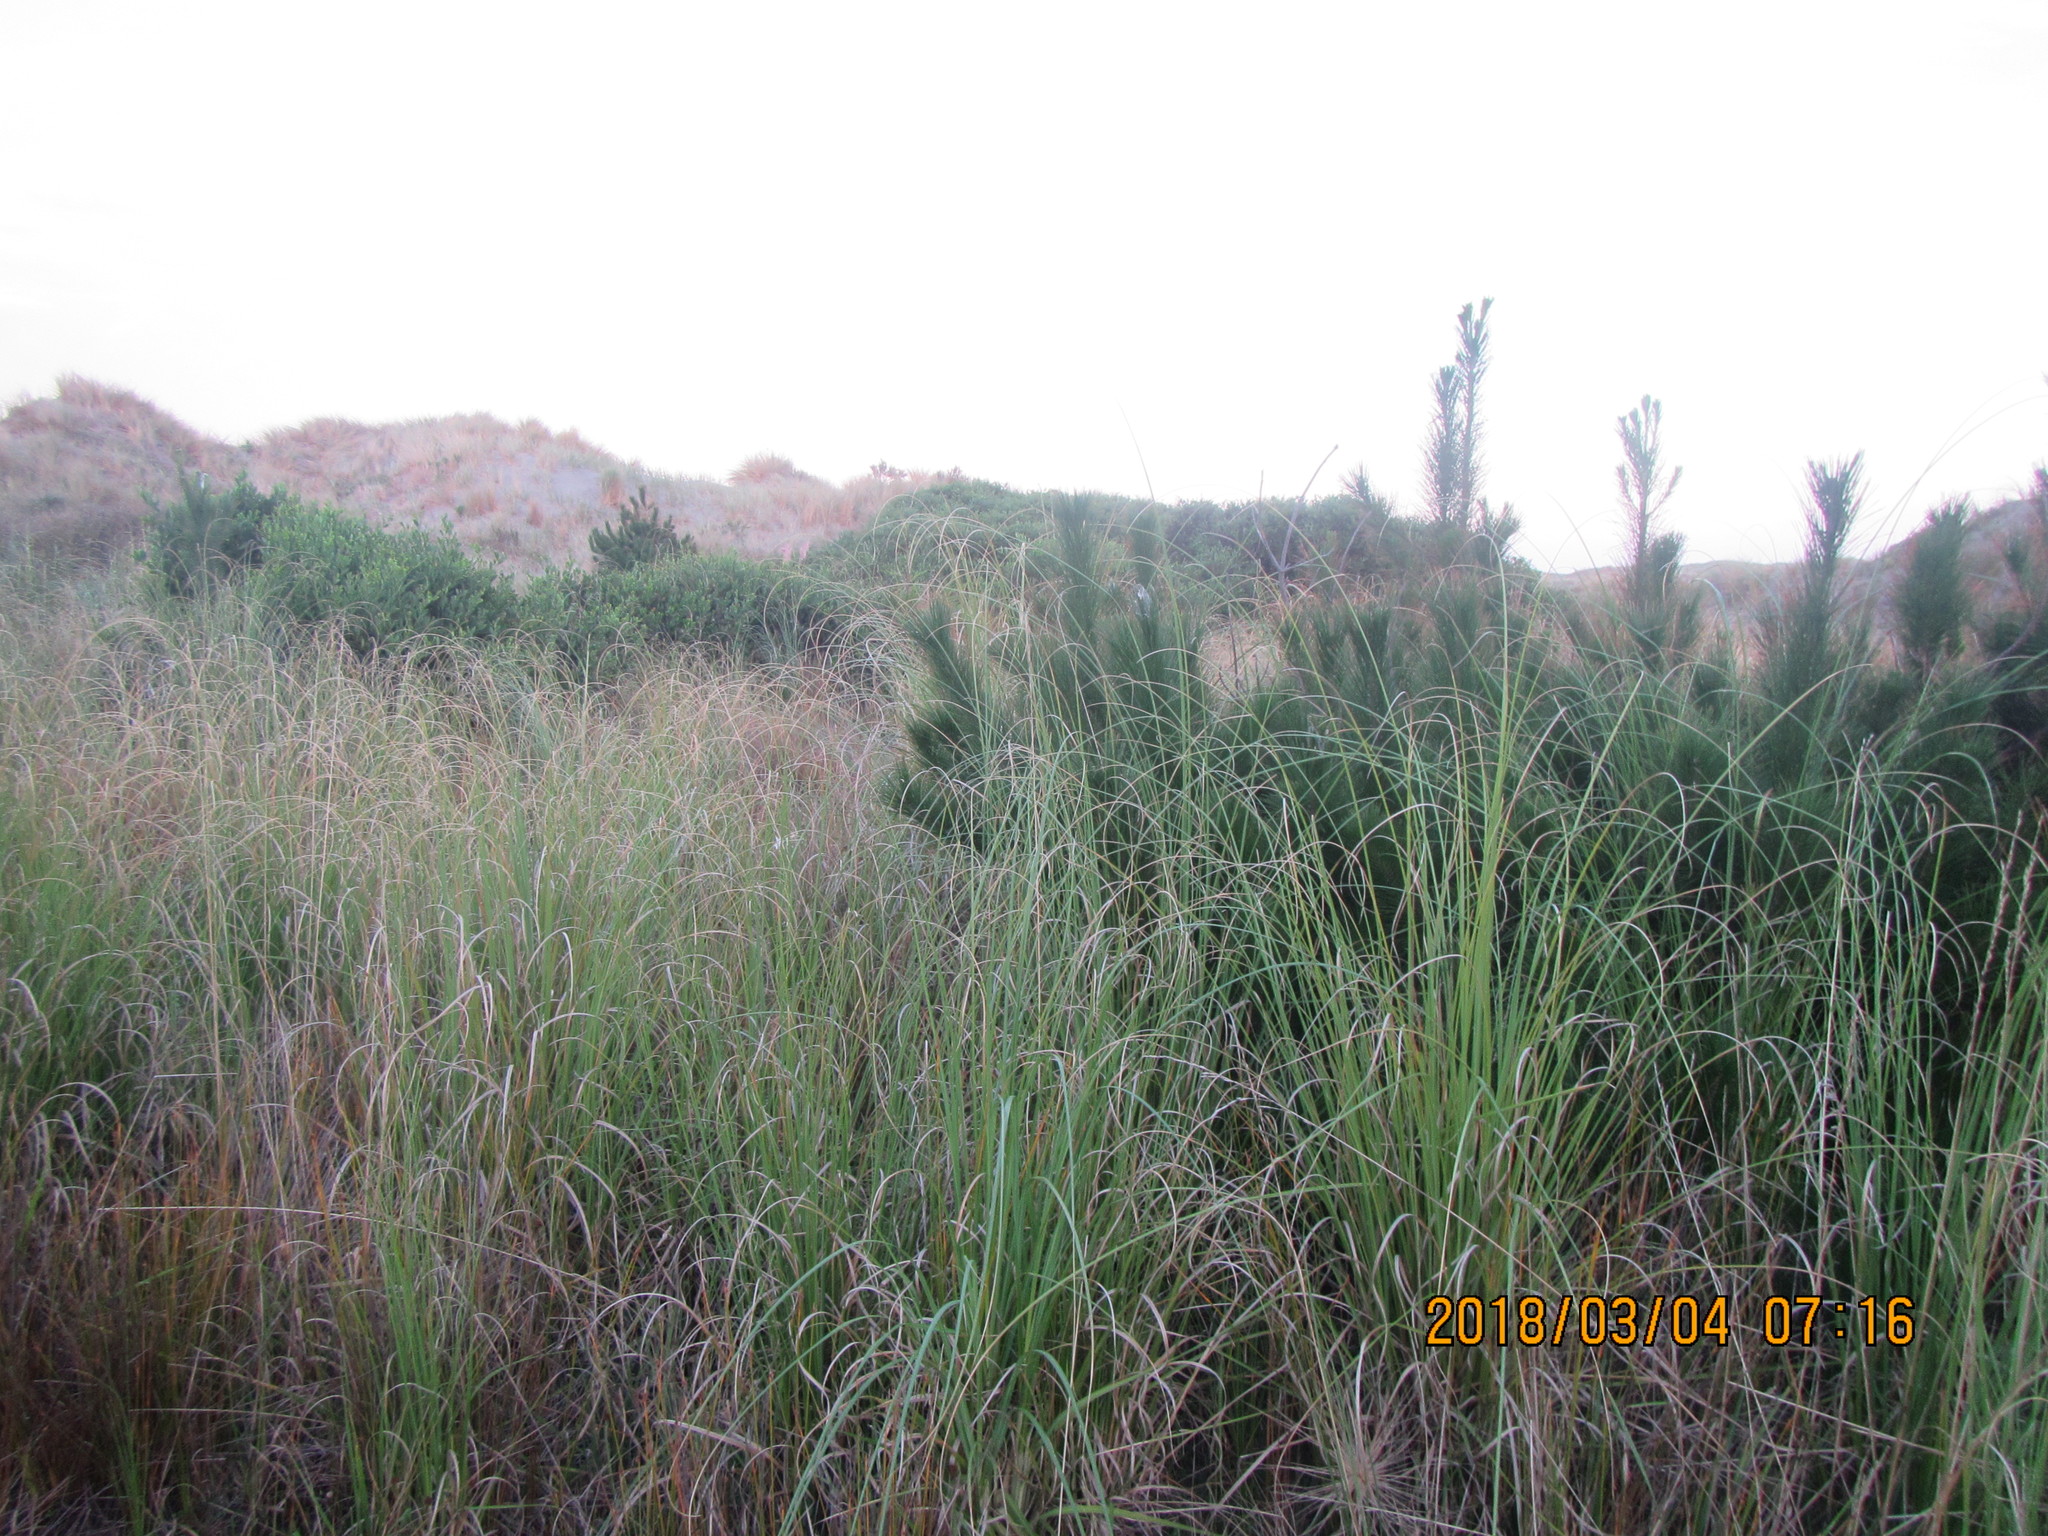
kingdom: Plantae
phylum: Tracheophyta
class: Pinopsida
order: Pinales
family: Pinaceae
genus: Pinus
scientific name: Pinus radiata
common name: Monterey pine
